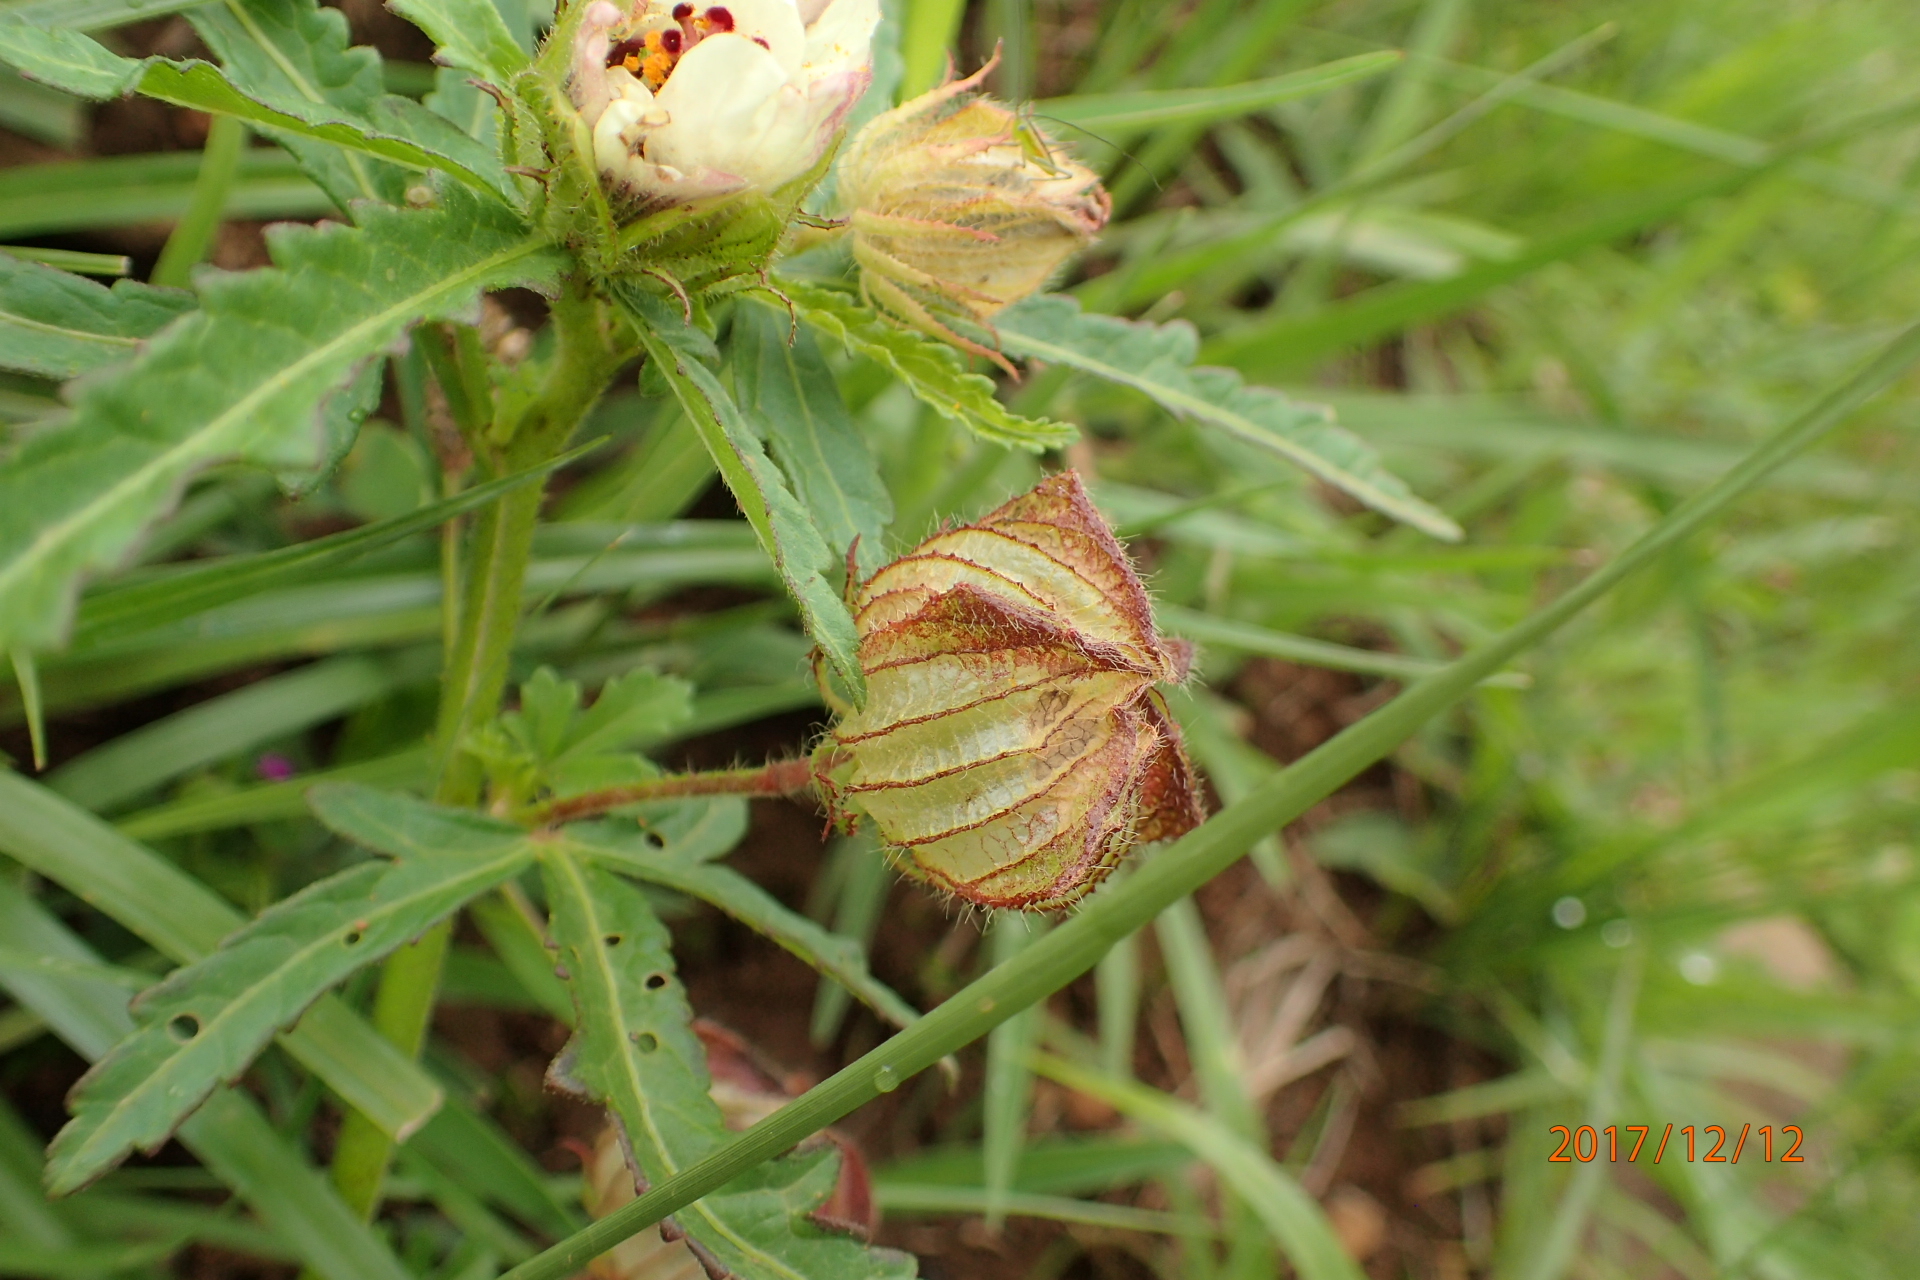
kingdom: Plantae
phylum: Tracheophyta
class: Magnoliopsida
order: Malvales
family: Malvaceae
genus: Hibiscus
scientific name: Hibiscus trionum
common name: Bladder ketmia
